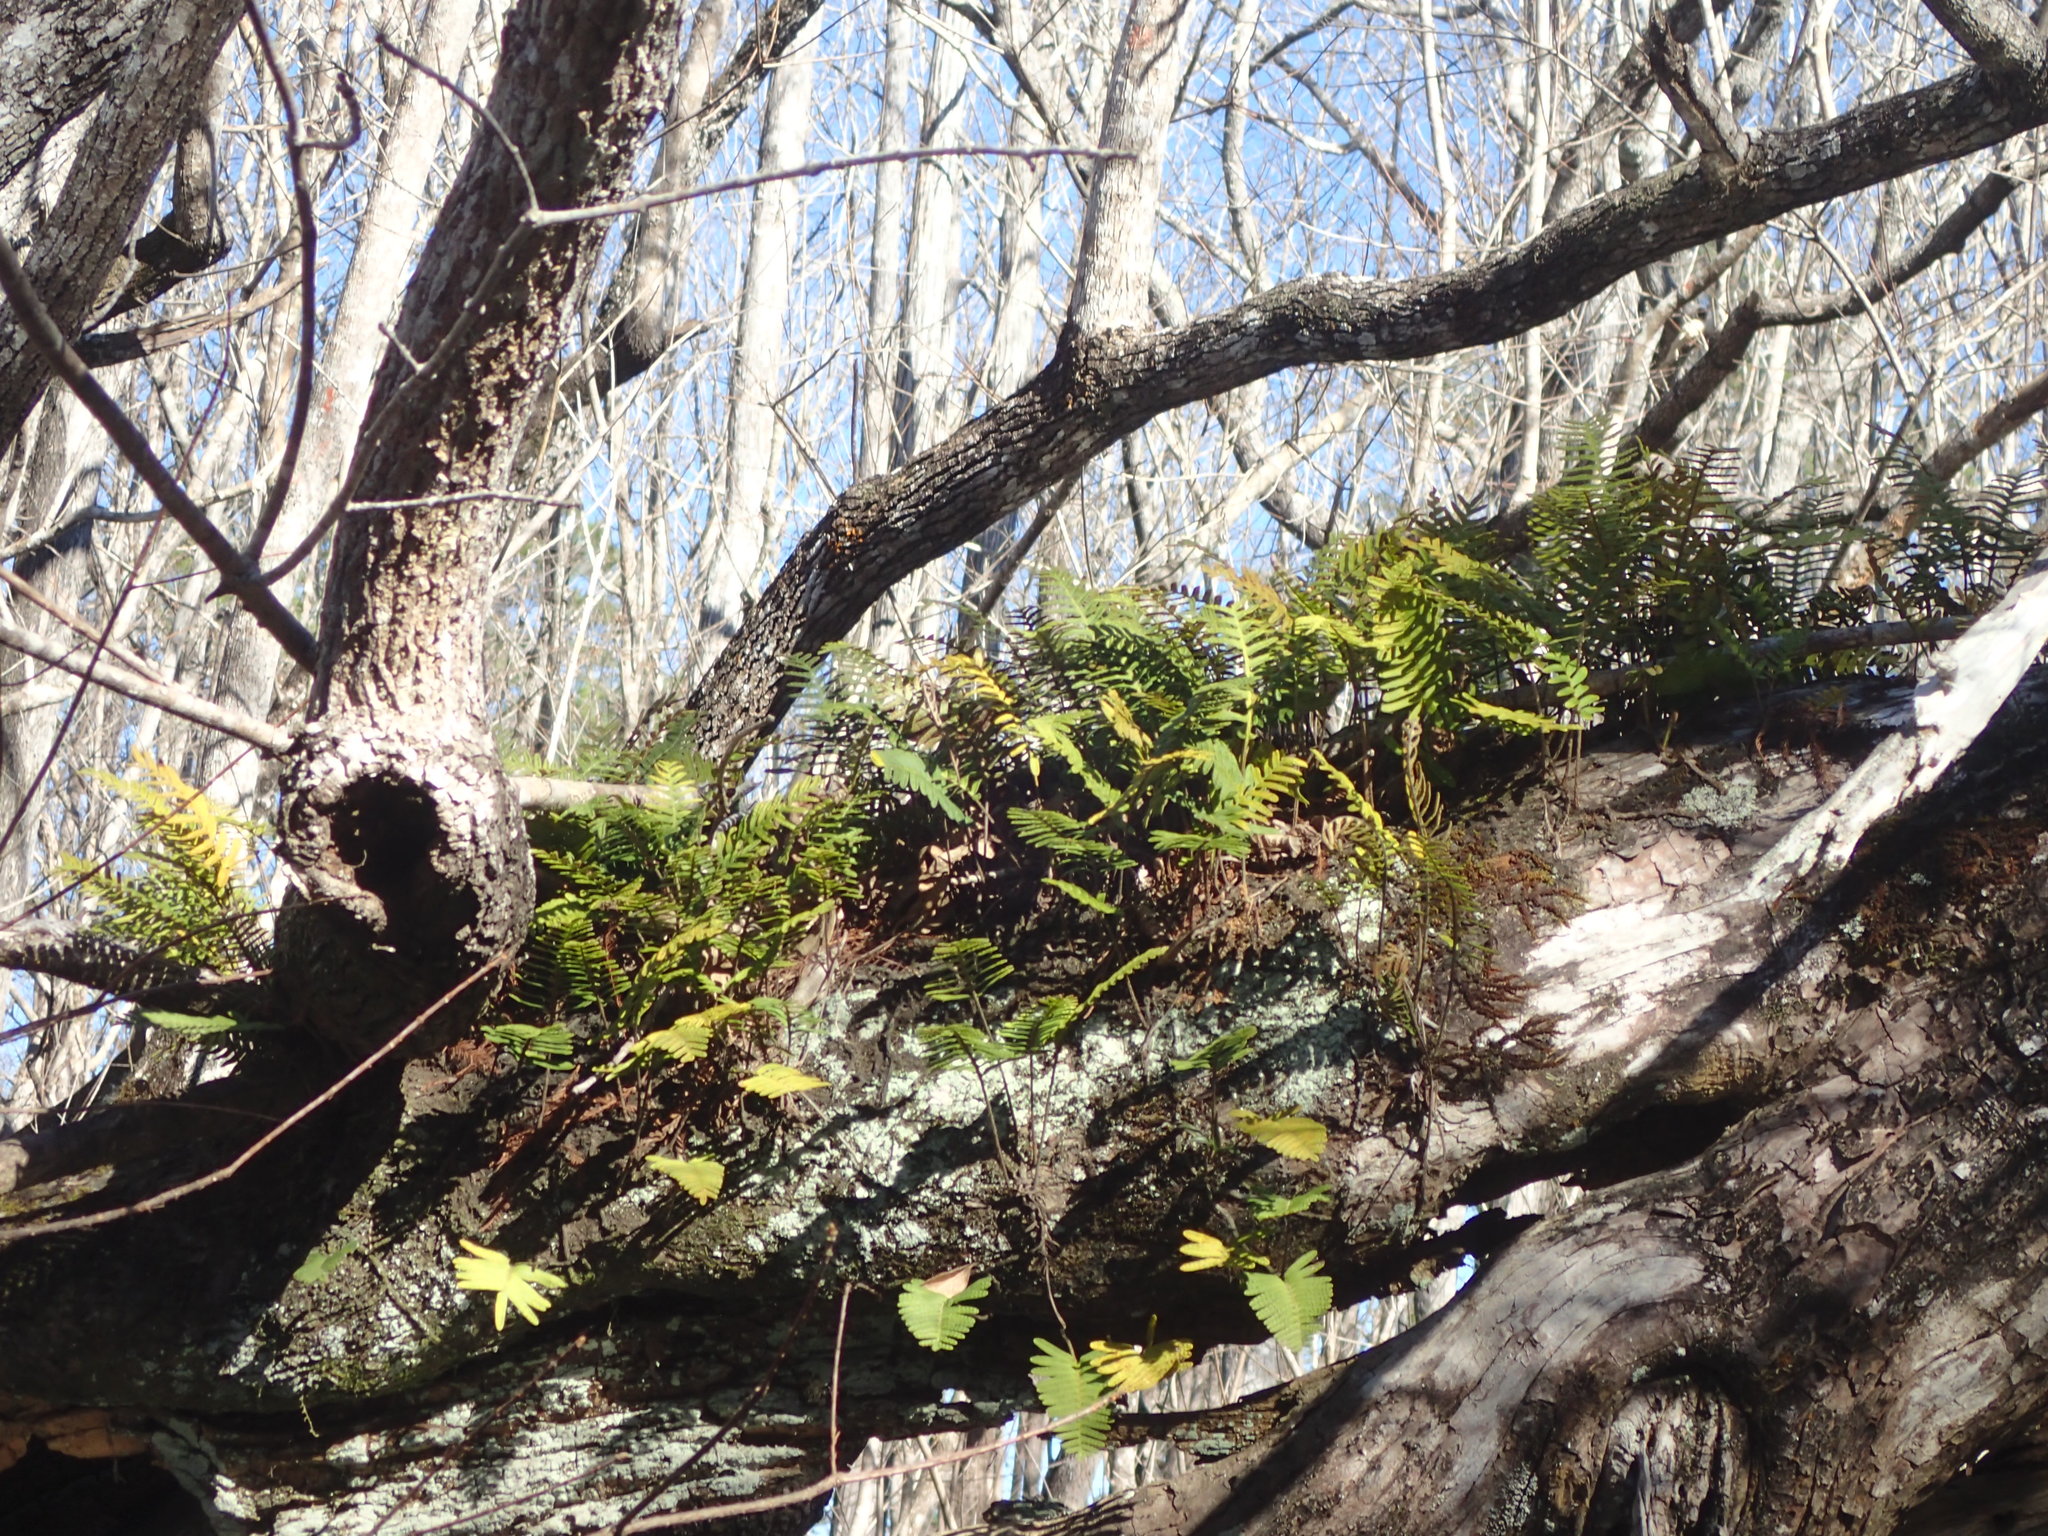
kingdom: Plantae
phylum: Tracheophyta
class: Polypodiopsida
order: Polypodiales
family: Polypodiaceae
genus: Pleopeltis
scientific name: Pleopeltis michauxiana
